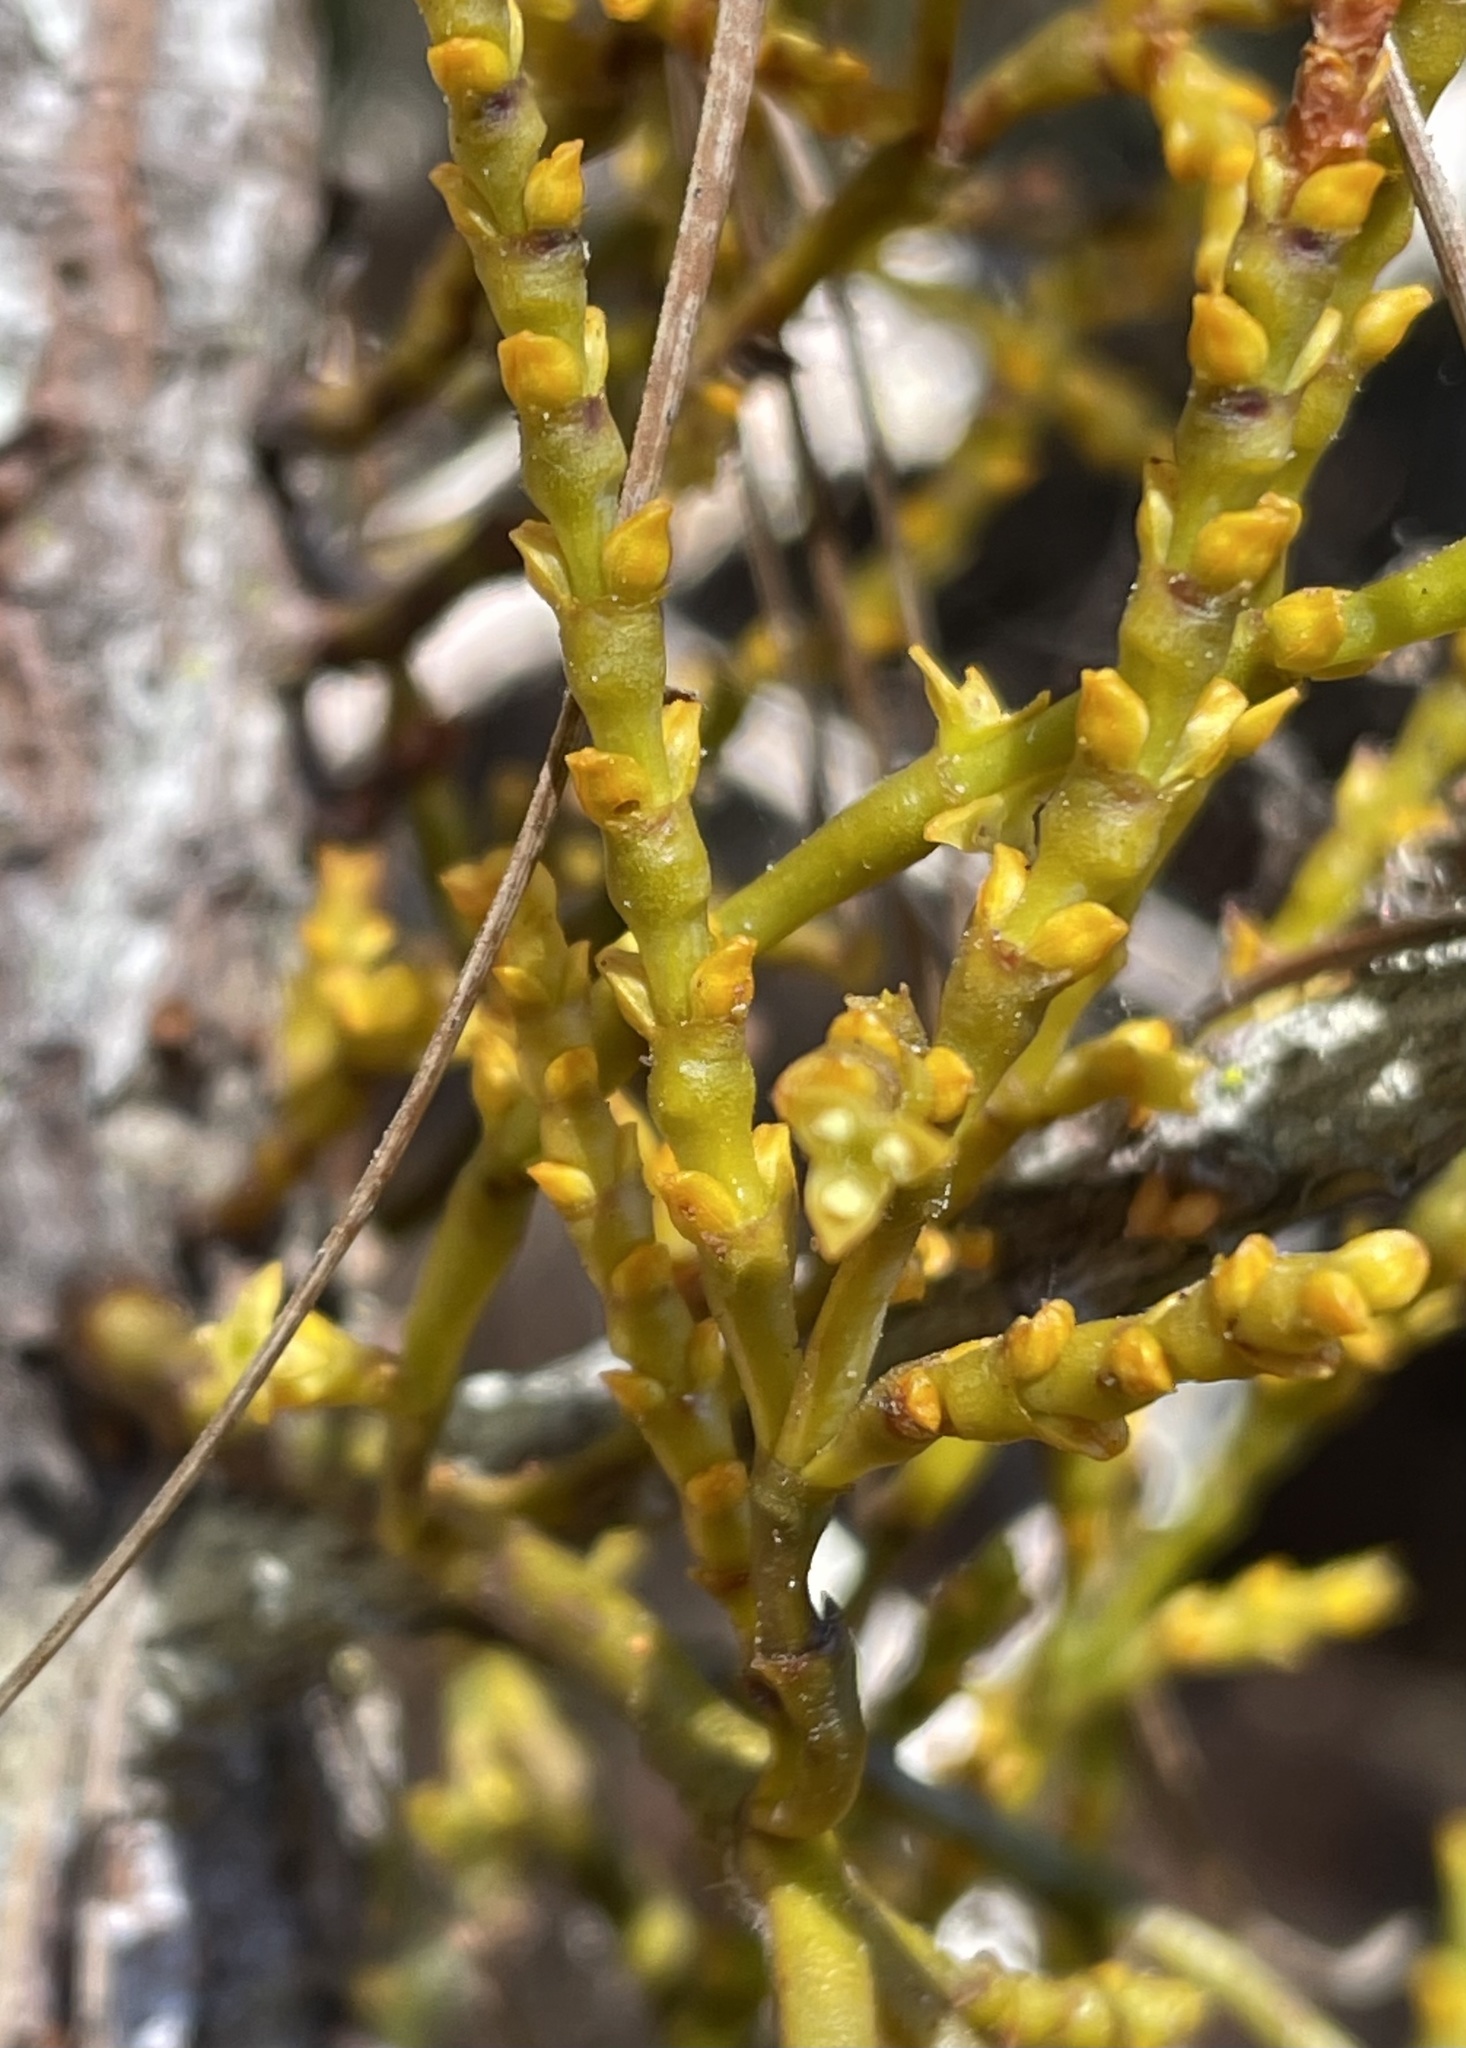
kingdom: Plantae
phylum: Tracheophyta
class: Magnoliopsida
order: Santalales
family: Viscaceae
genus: Arceuthobium
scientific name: Arceuthobium campylopodum
